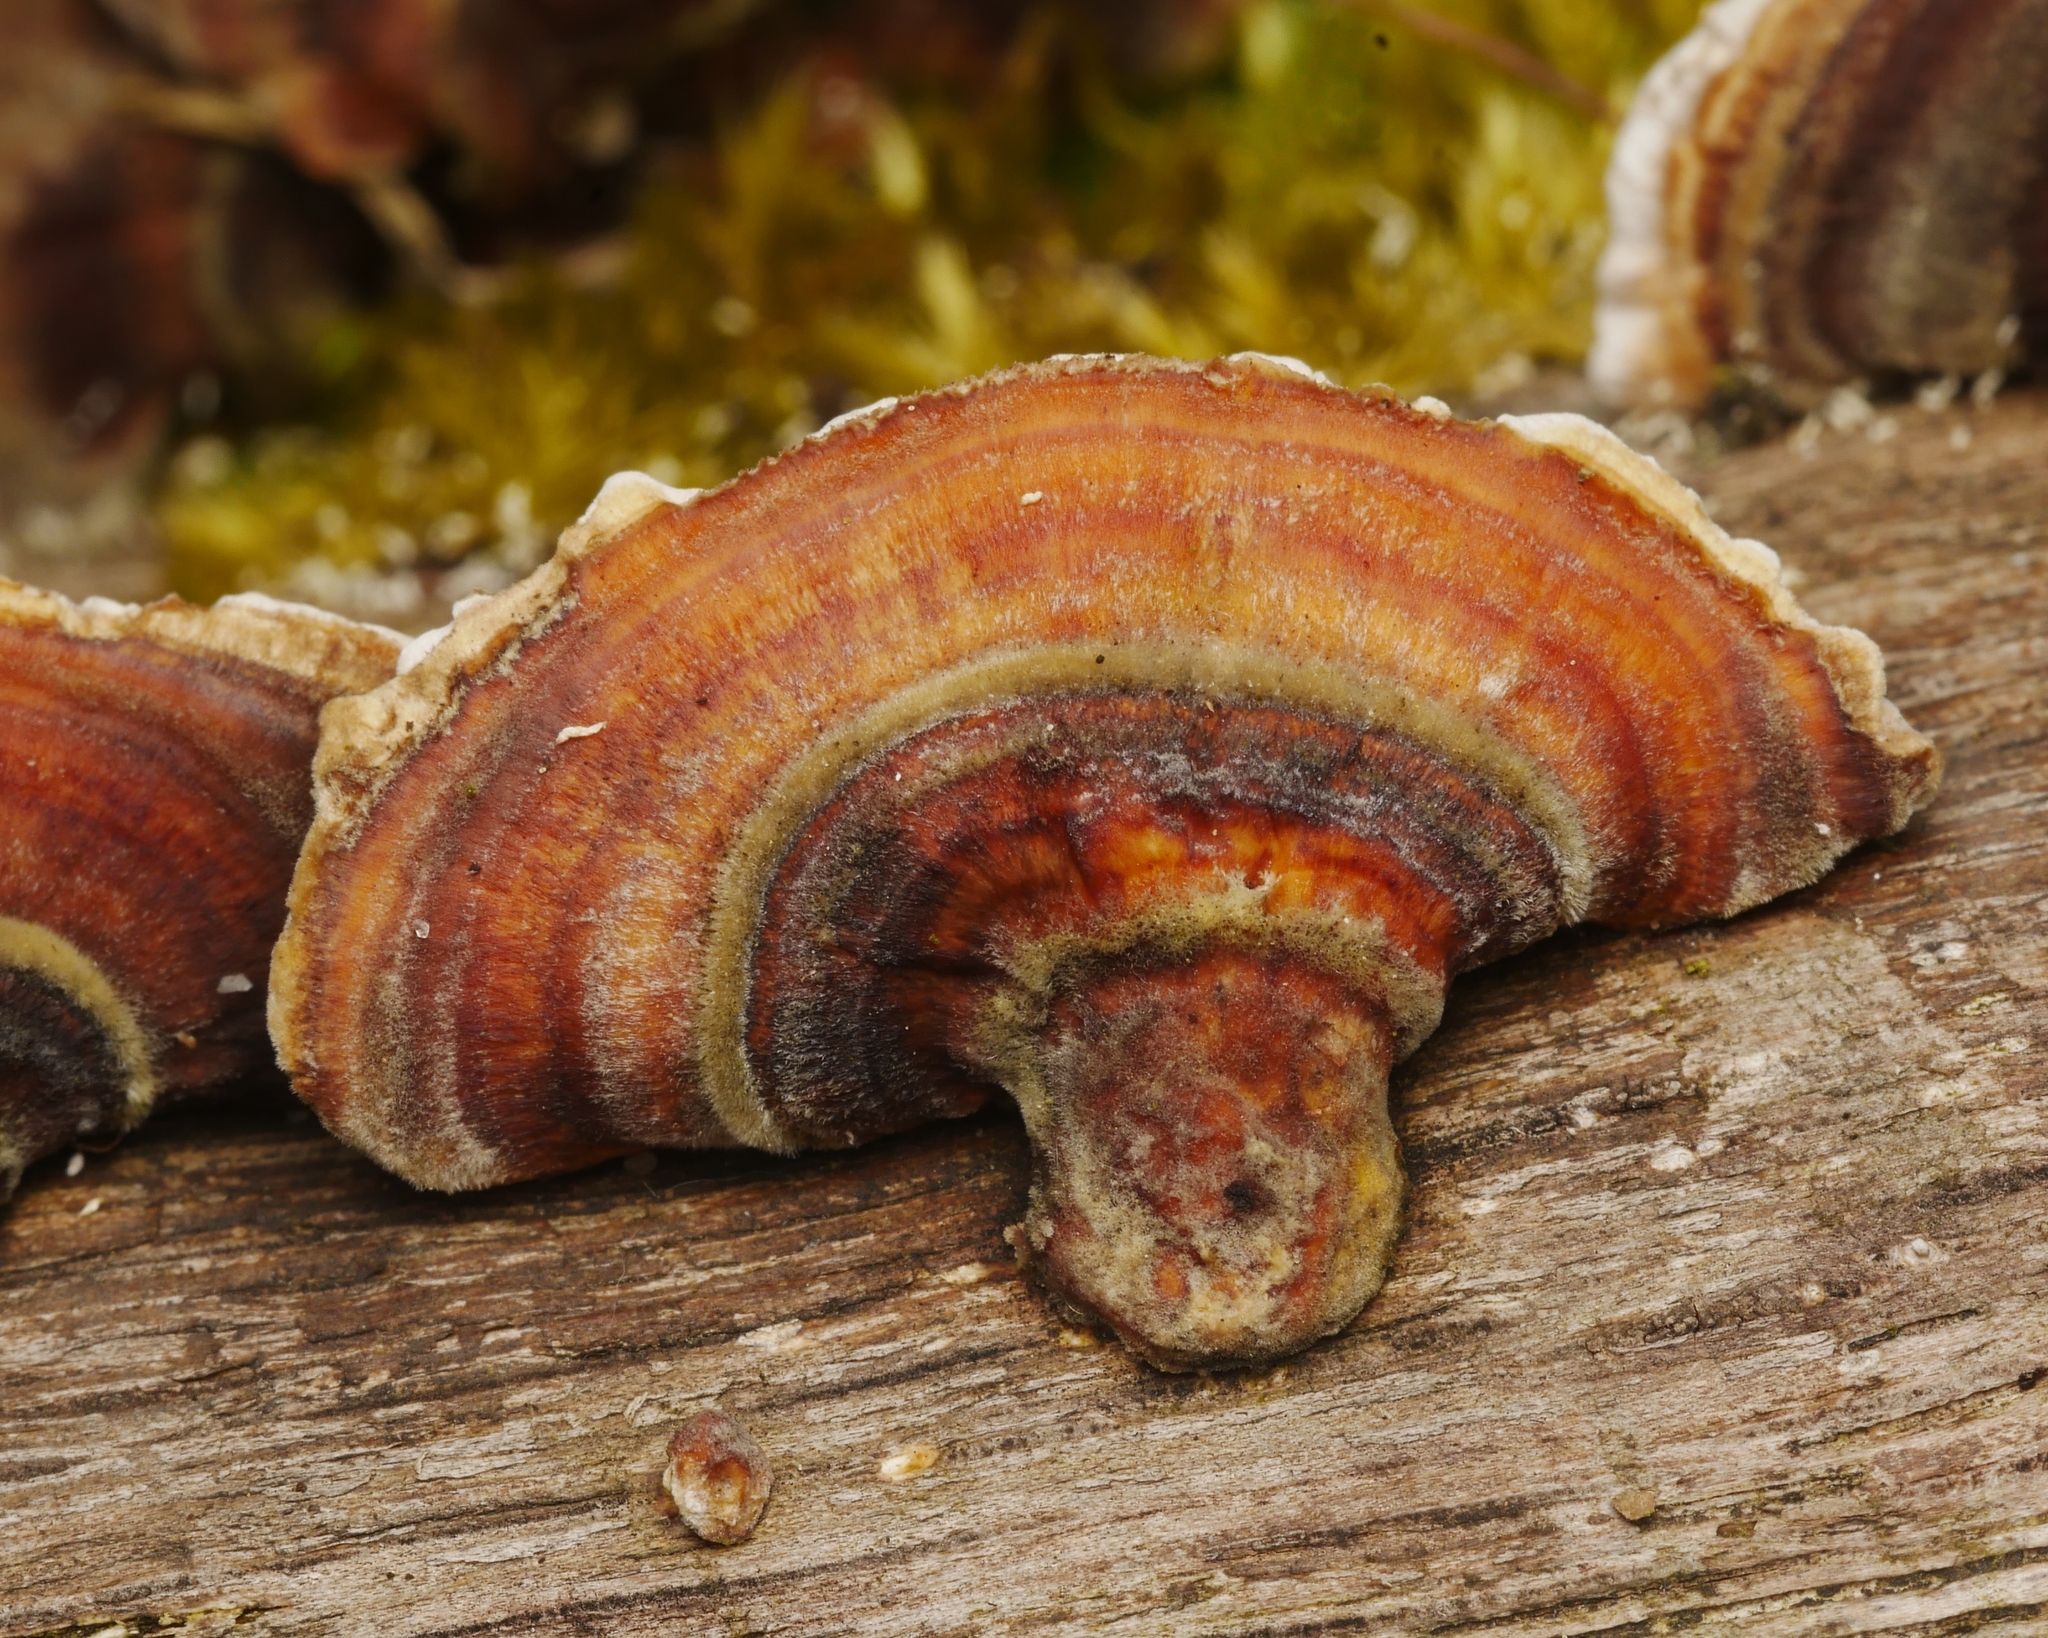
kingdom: Fungi
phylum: Basidiomycota
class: Agaricomycetes
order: Polyporales
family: Polyporaceae
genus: Trametes
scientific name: Trametes versicolor
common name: Turkeytail
